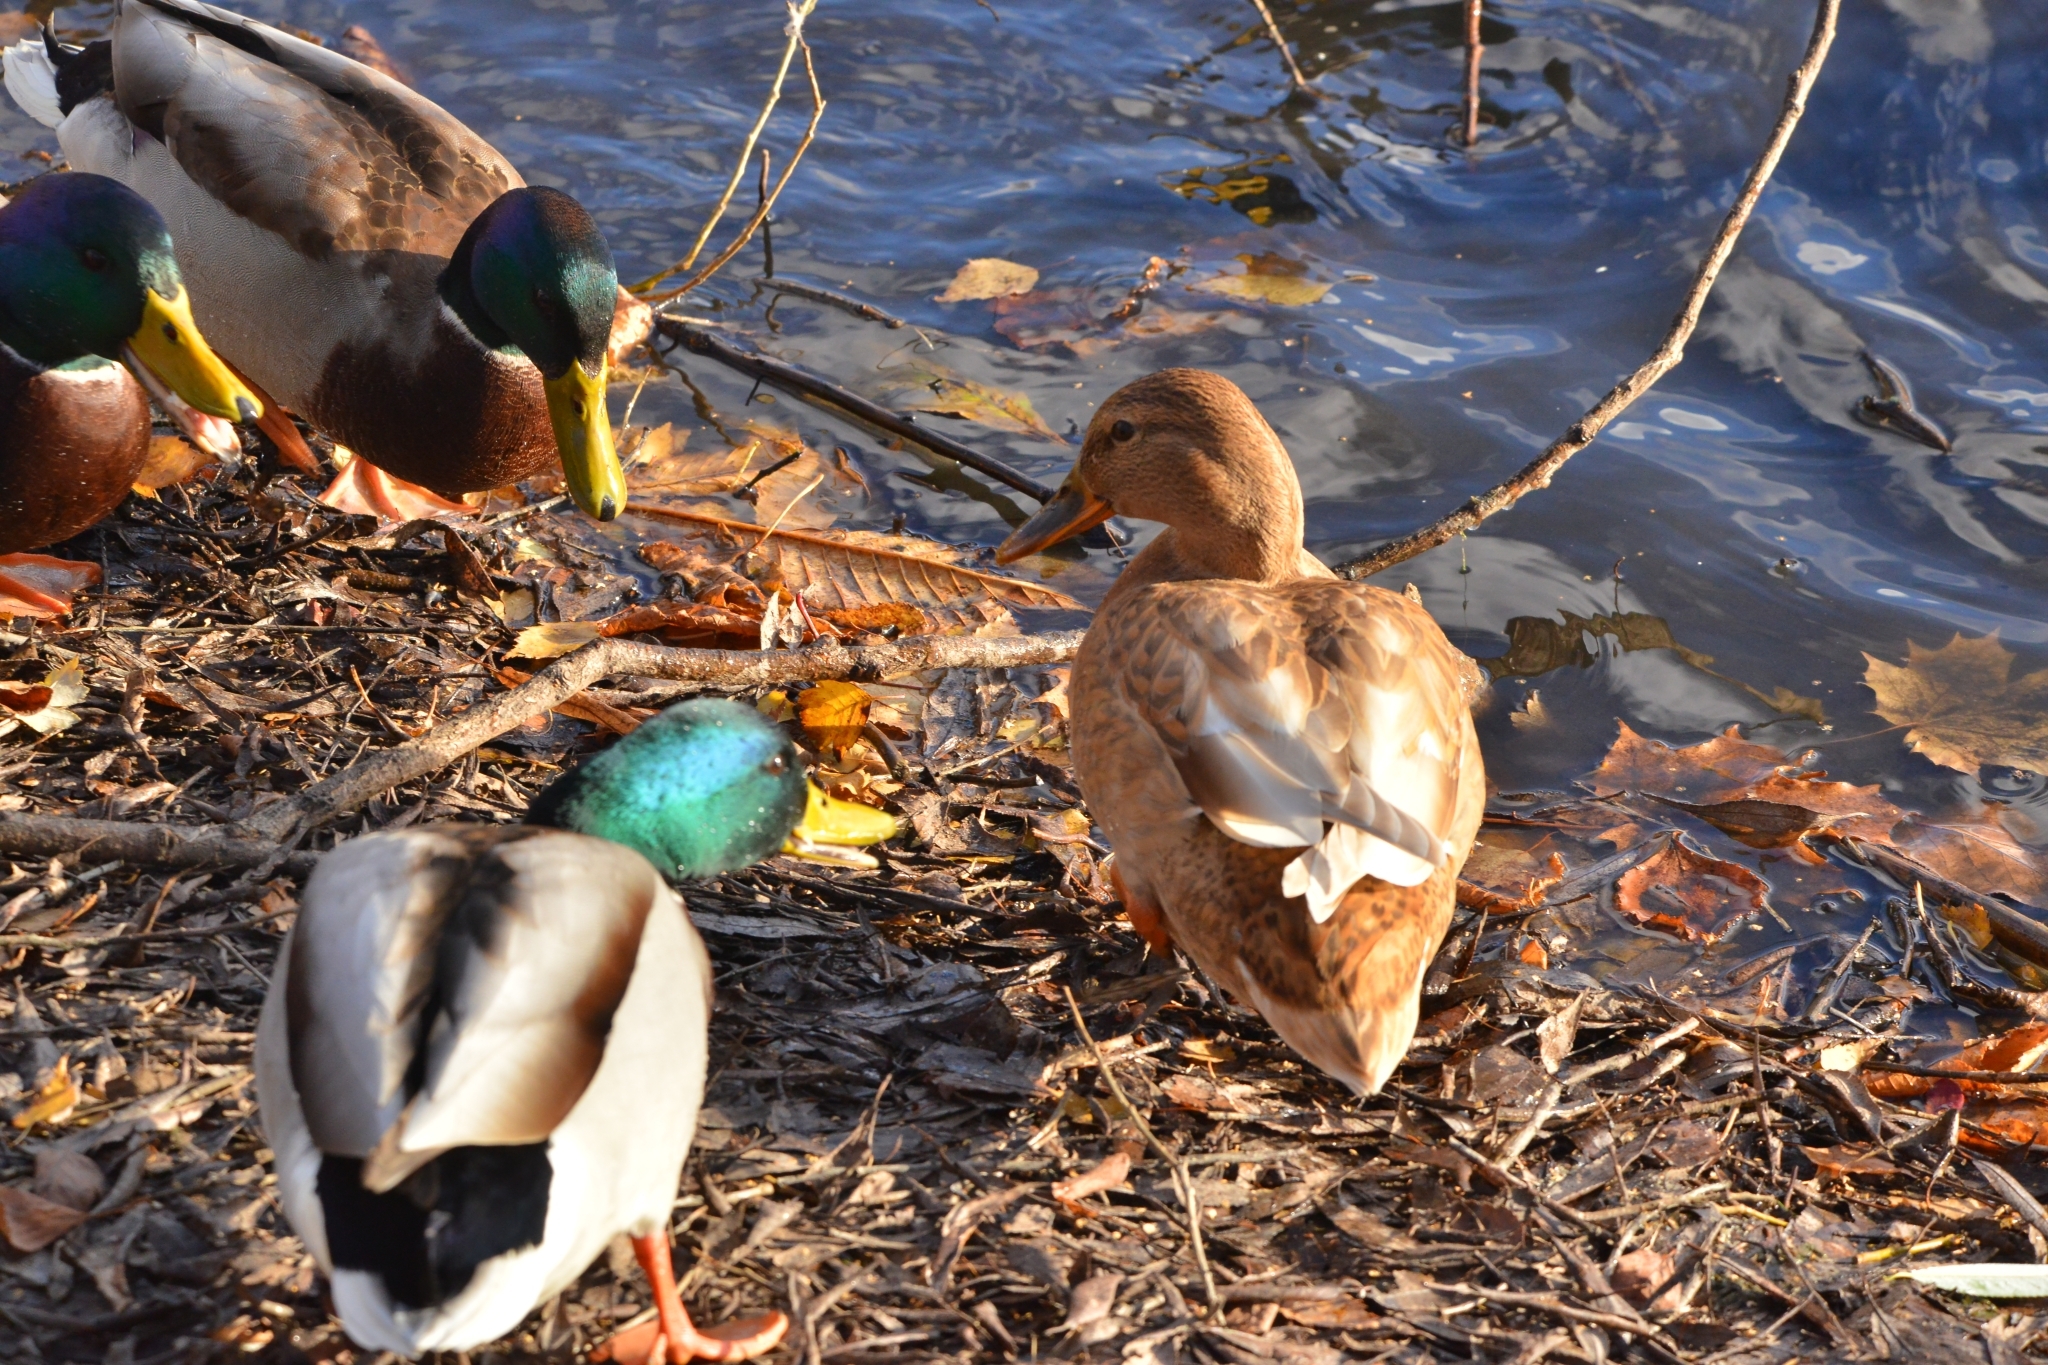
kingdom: Animalia
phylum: Chordata
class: Aves
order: Anseriformes
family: Anatidae
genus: Anas
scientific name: Anas platyrhynchos
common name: Mallard
